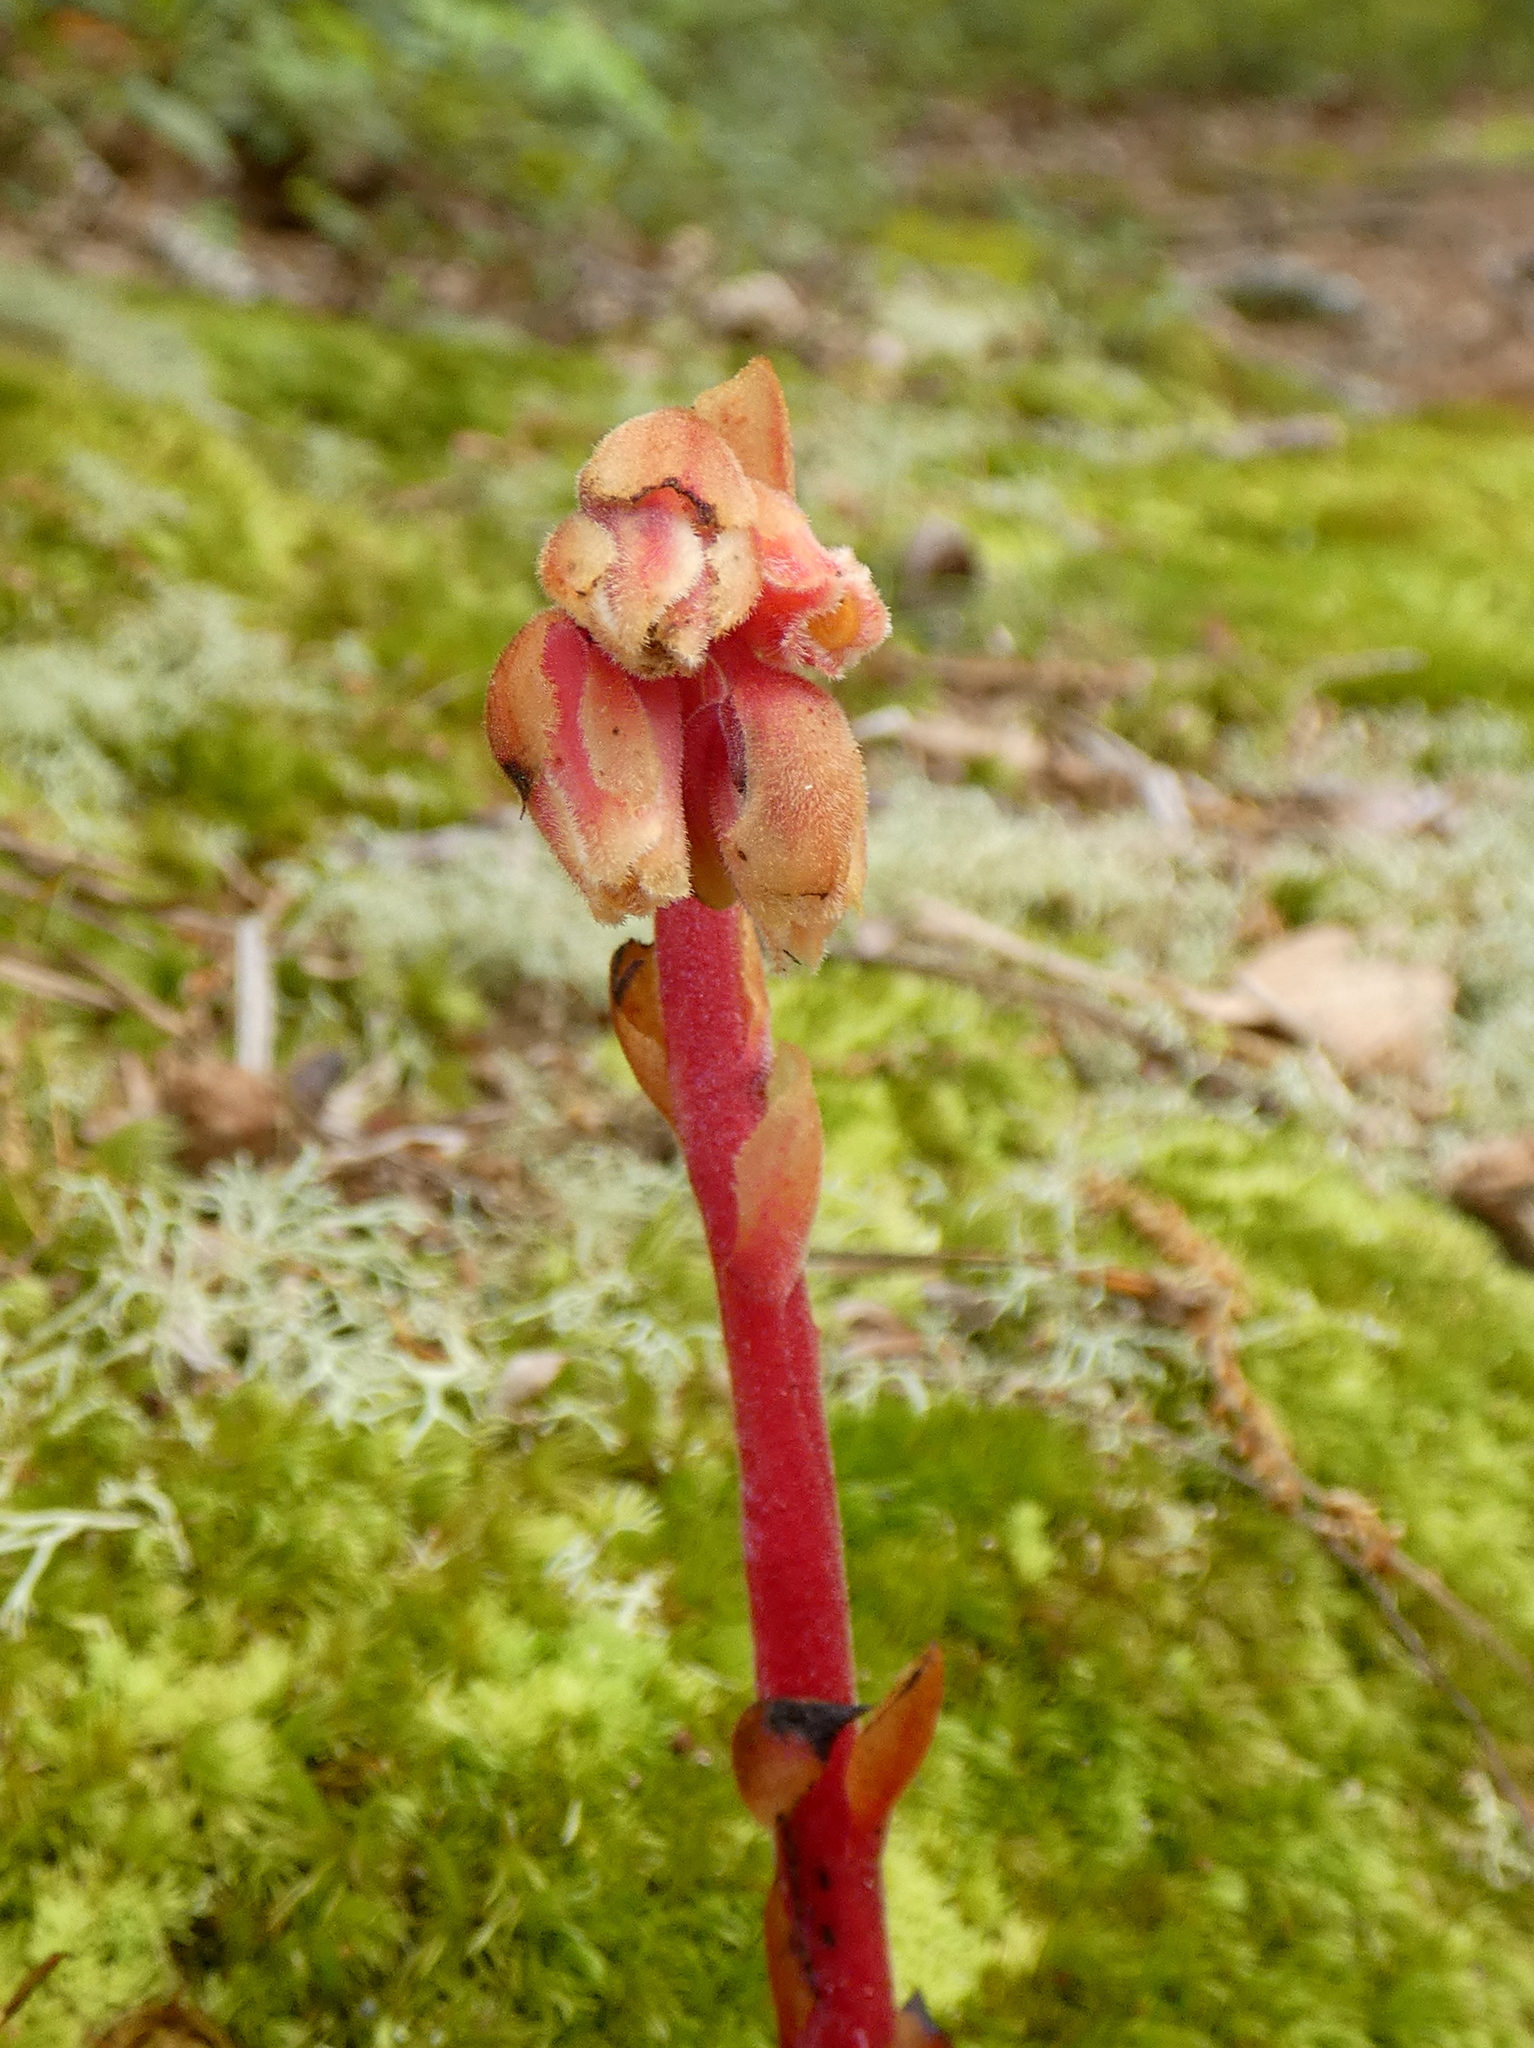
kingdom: Plantae
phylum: Tracheophyta
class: Magnoliopsida
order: Ericales
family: Ericaceae
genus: Hypopitys
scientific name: Hypopitys monotropa
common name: Yellow bird's-nest
